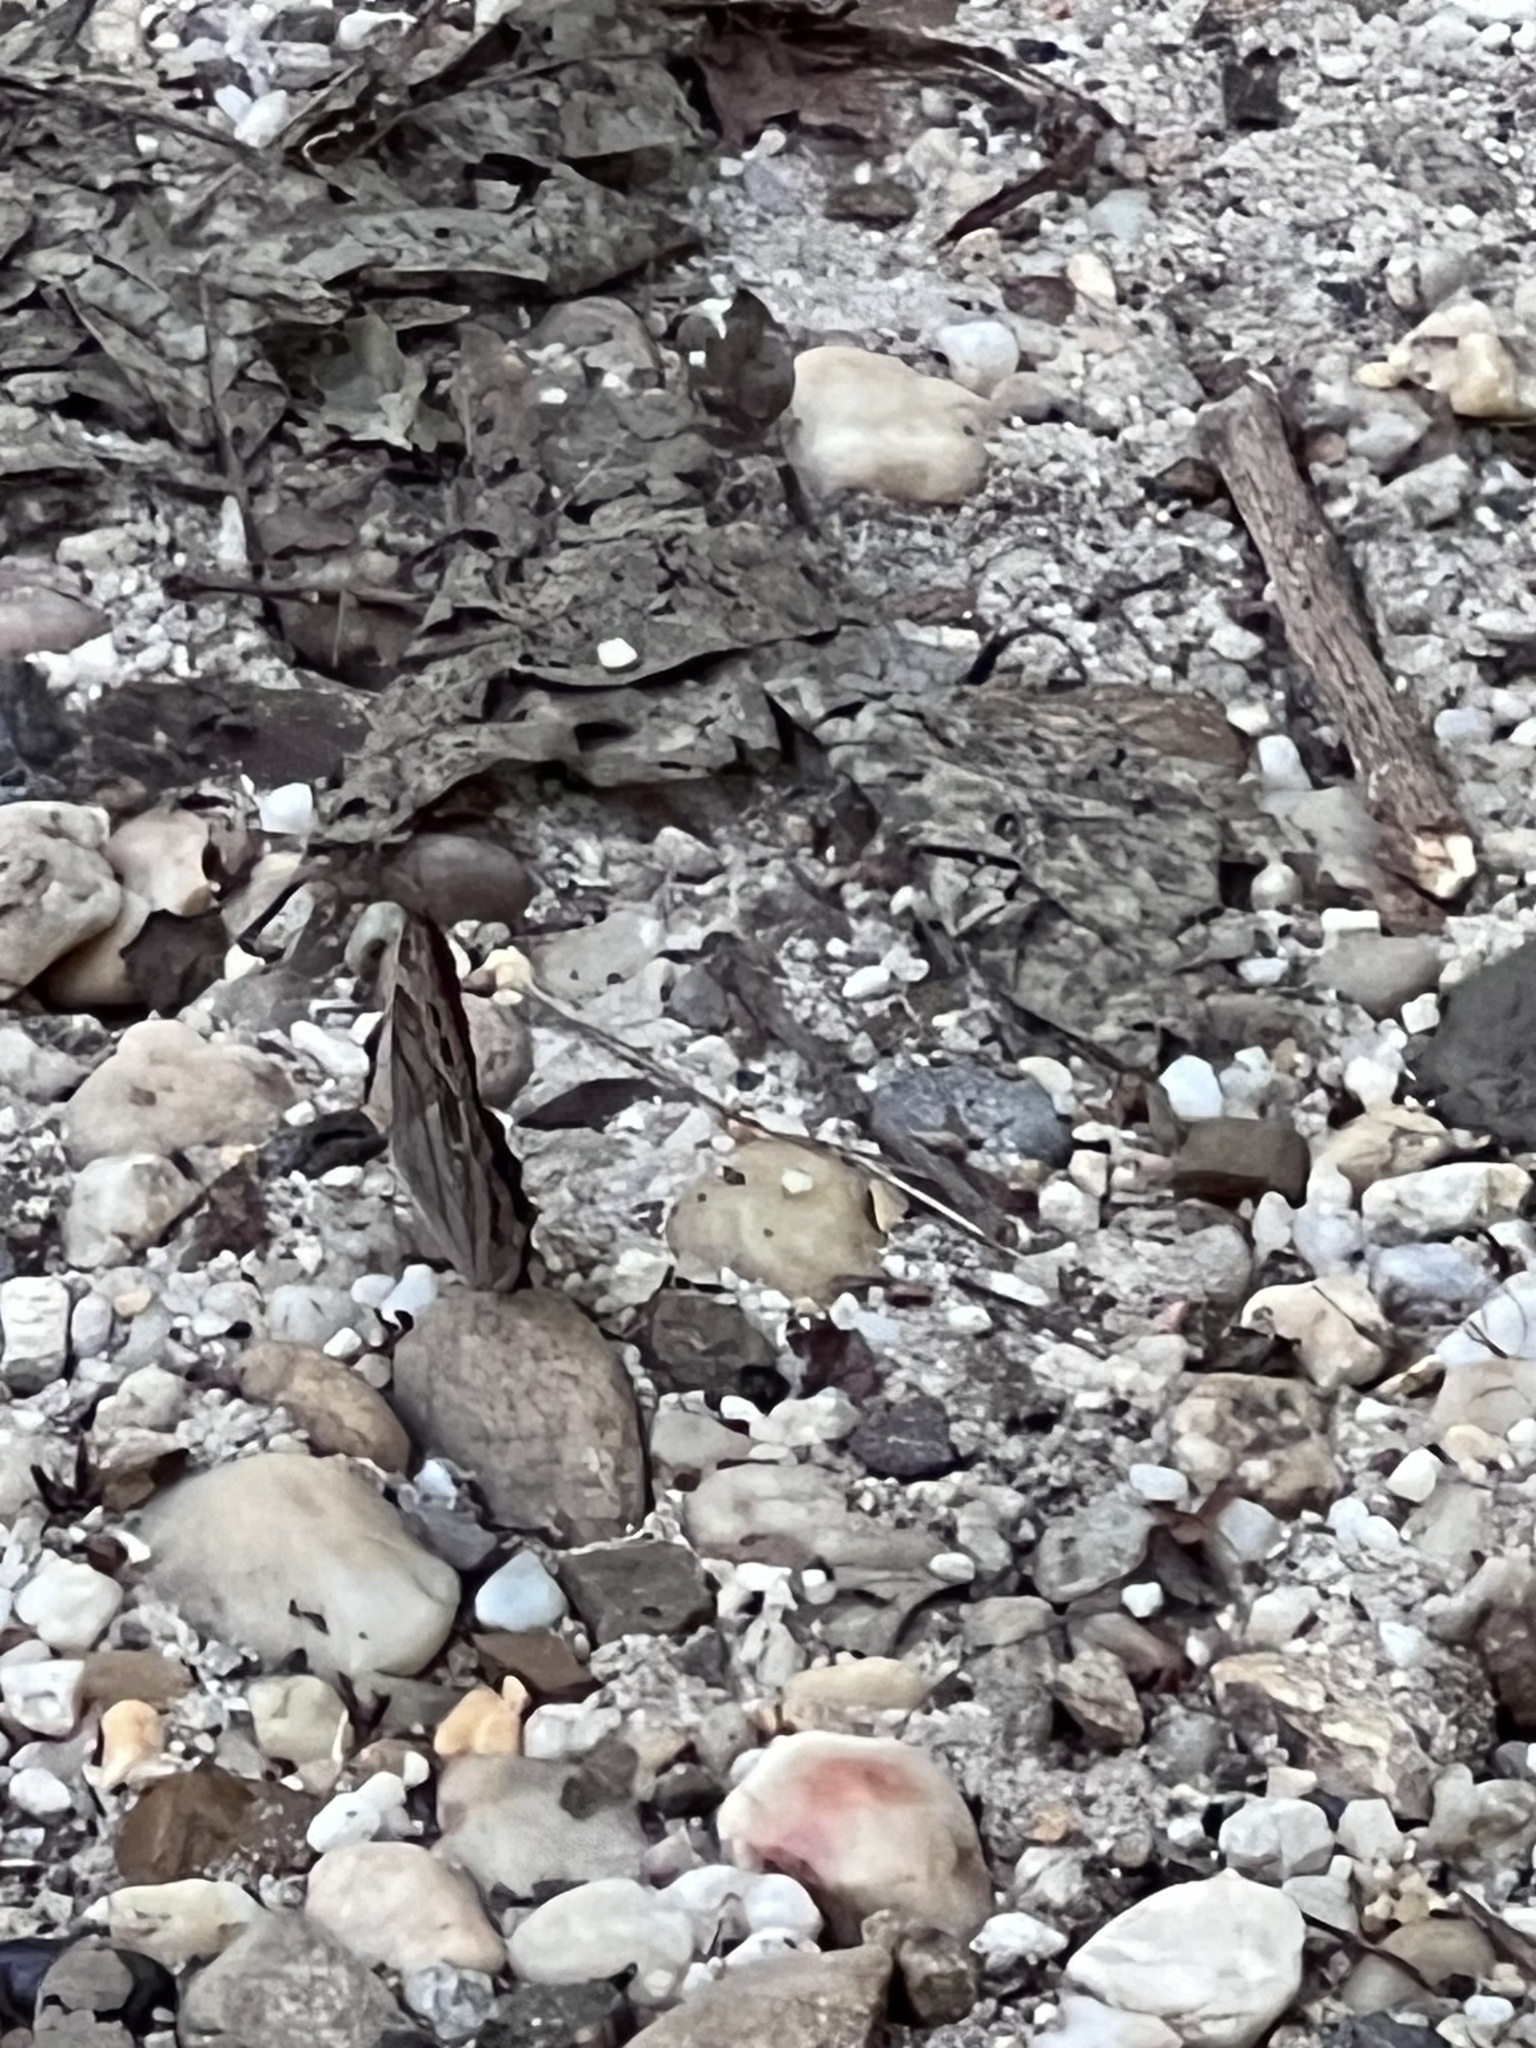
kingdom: Animalia
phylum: Arthropoda
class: Insecta
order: Lepidoptera
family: Nymphalidae
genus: Lethe
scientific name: Lethe anthedon
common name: Northern pearly-eye
